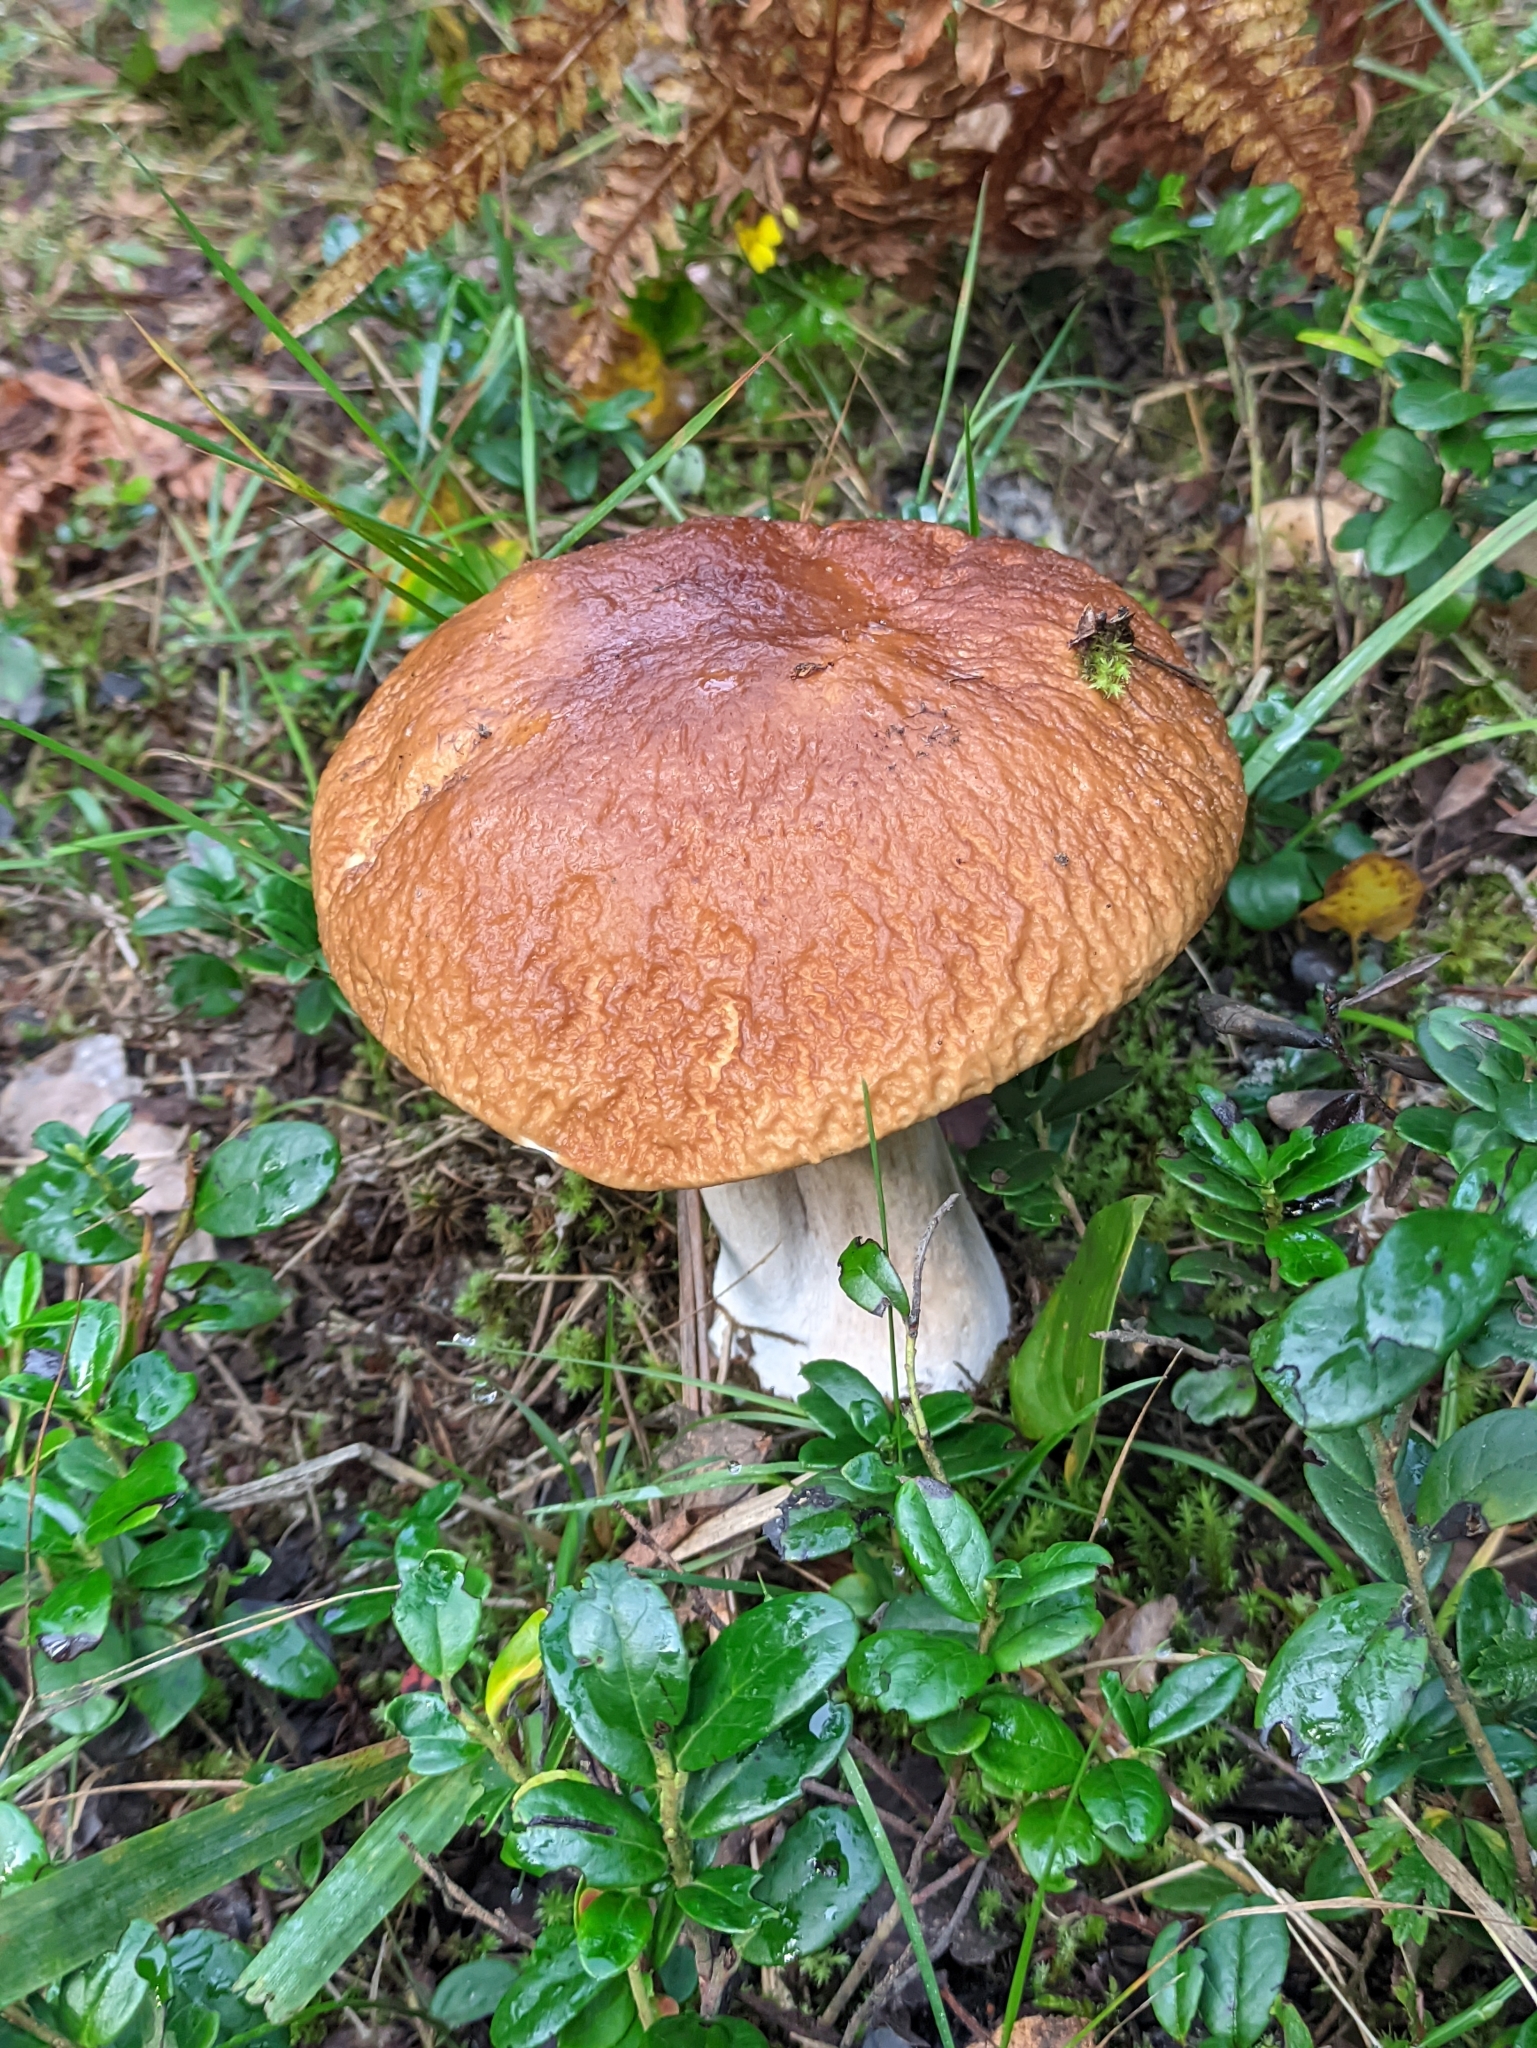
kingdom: Fungi
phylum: Basidiomycota
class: Agaricomycetes
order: Boletales
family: Boletaceae
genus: Boletus
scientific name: Boletus edulis
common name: Cep
